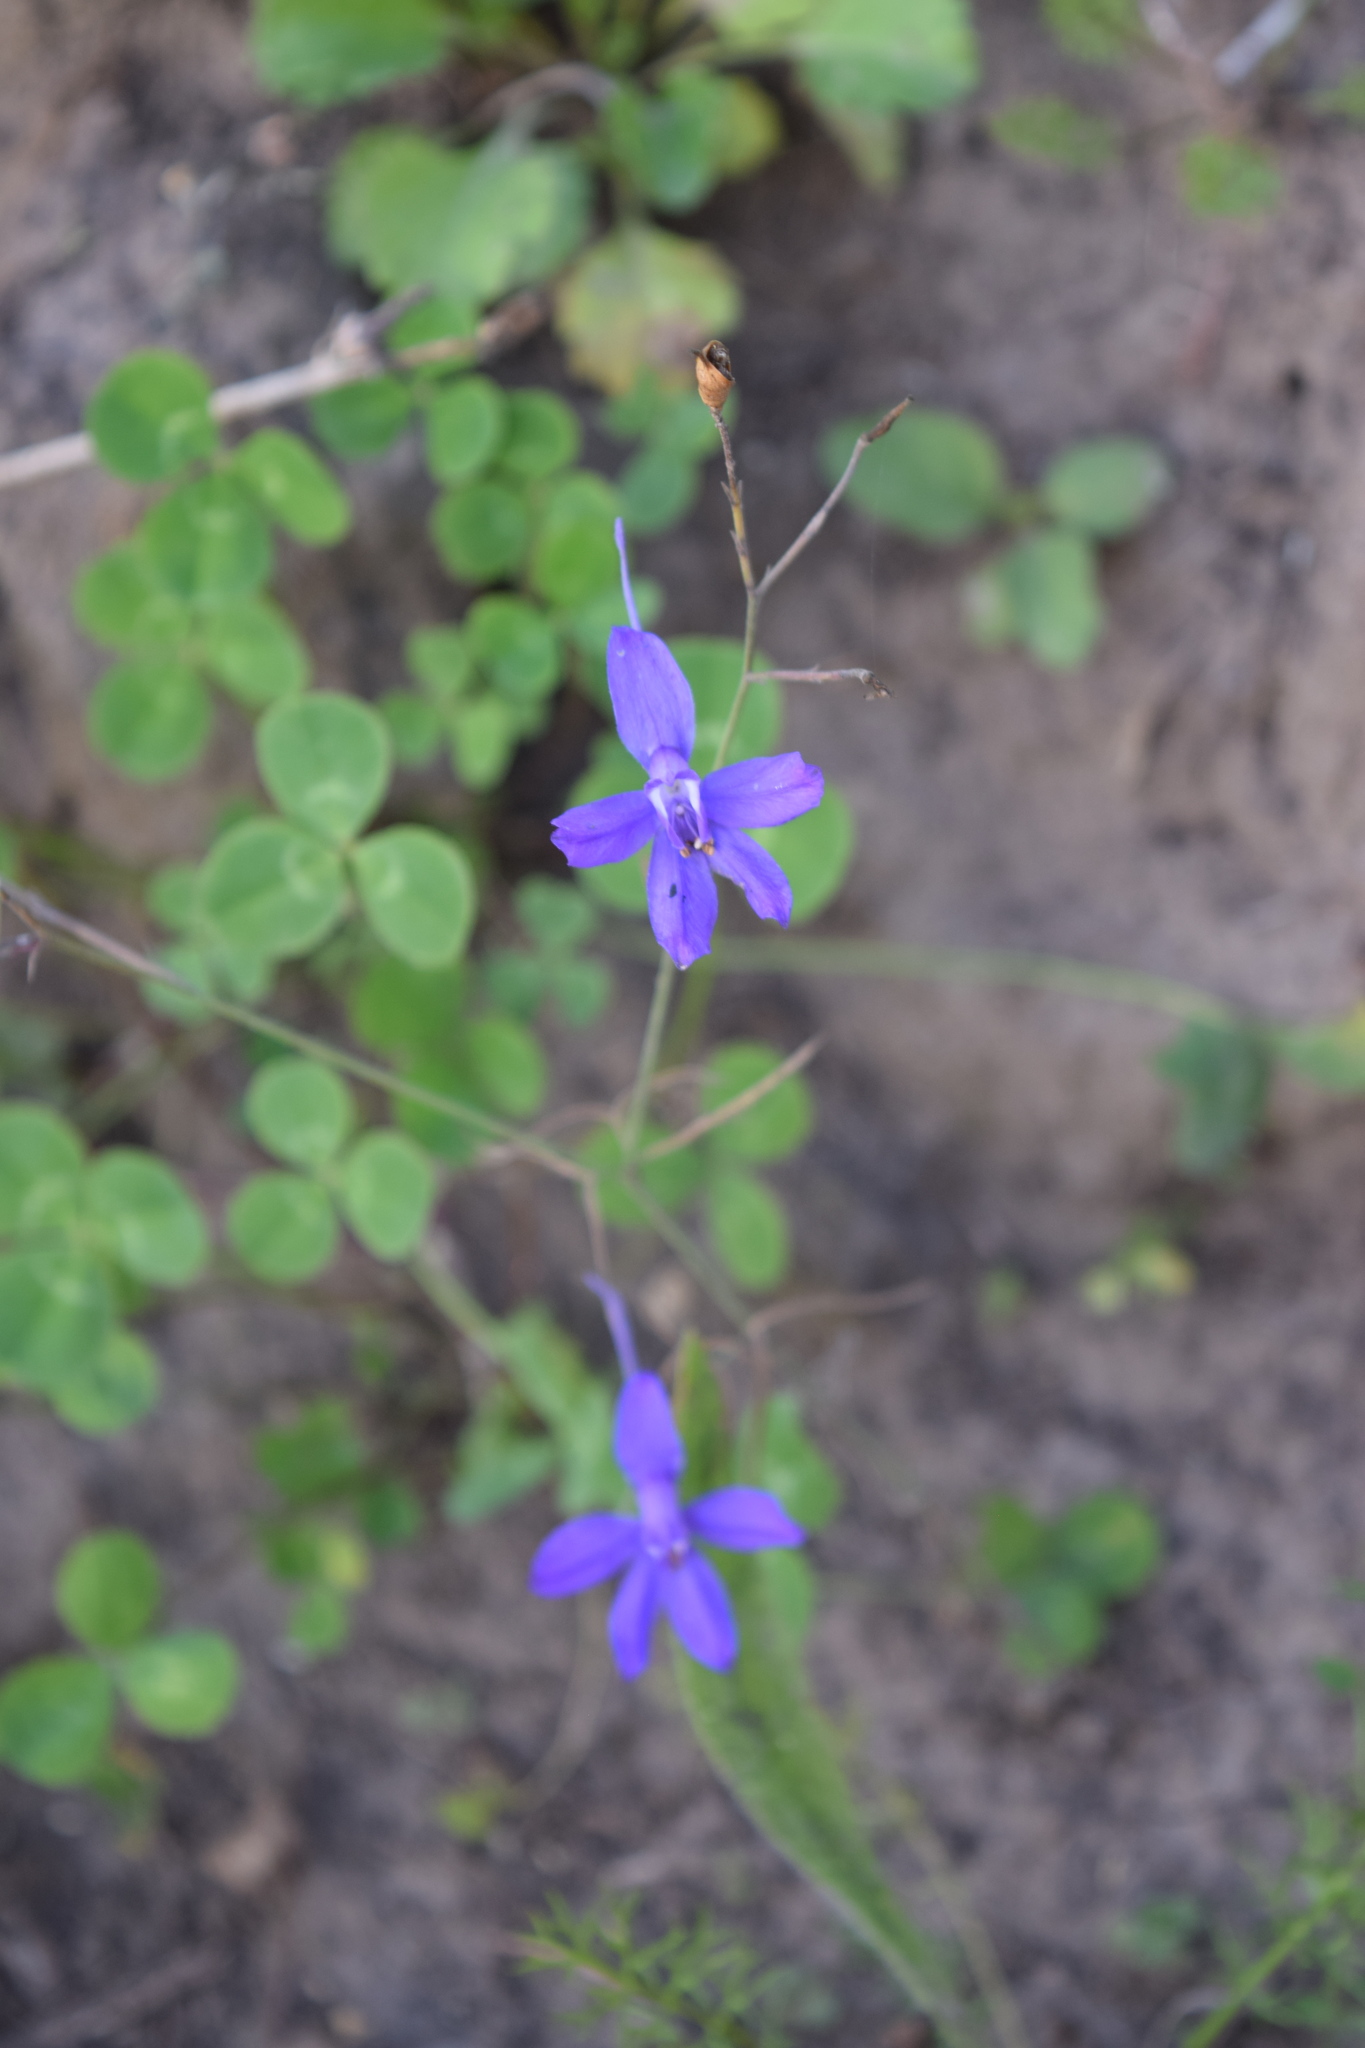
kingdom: Plantae
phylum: Tracheophyta
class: Magnoliopsida
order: Ranunculales
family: Ranunculaceae
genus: Delphinium
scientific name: Delphinium consolida
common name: Branching larkspur
